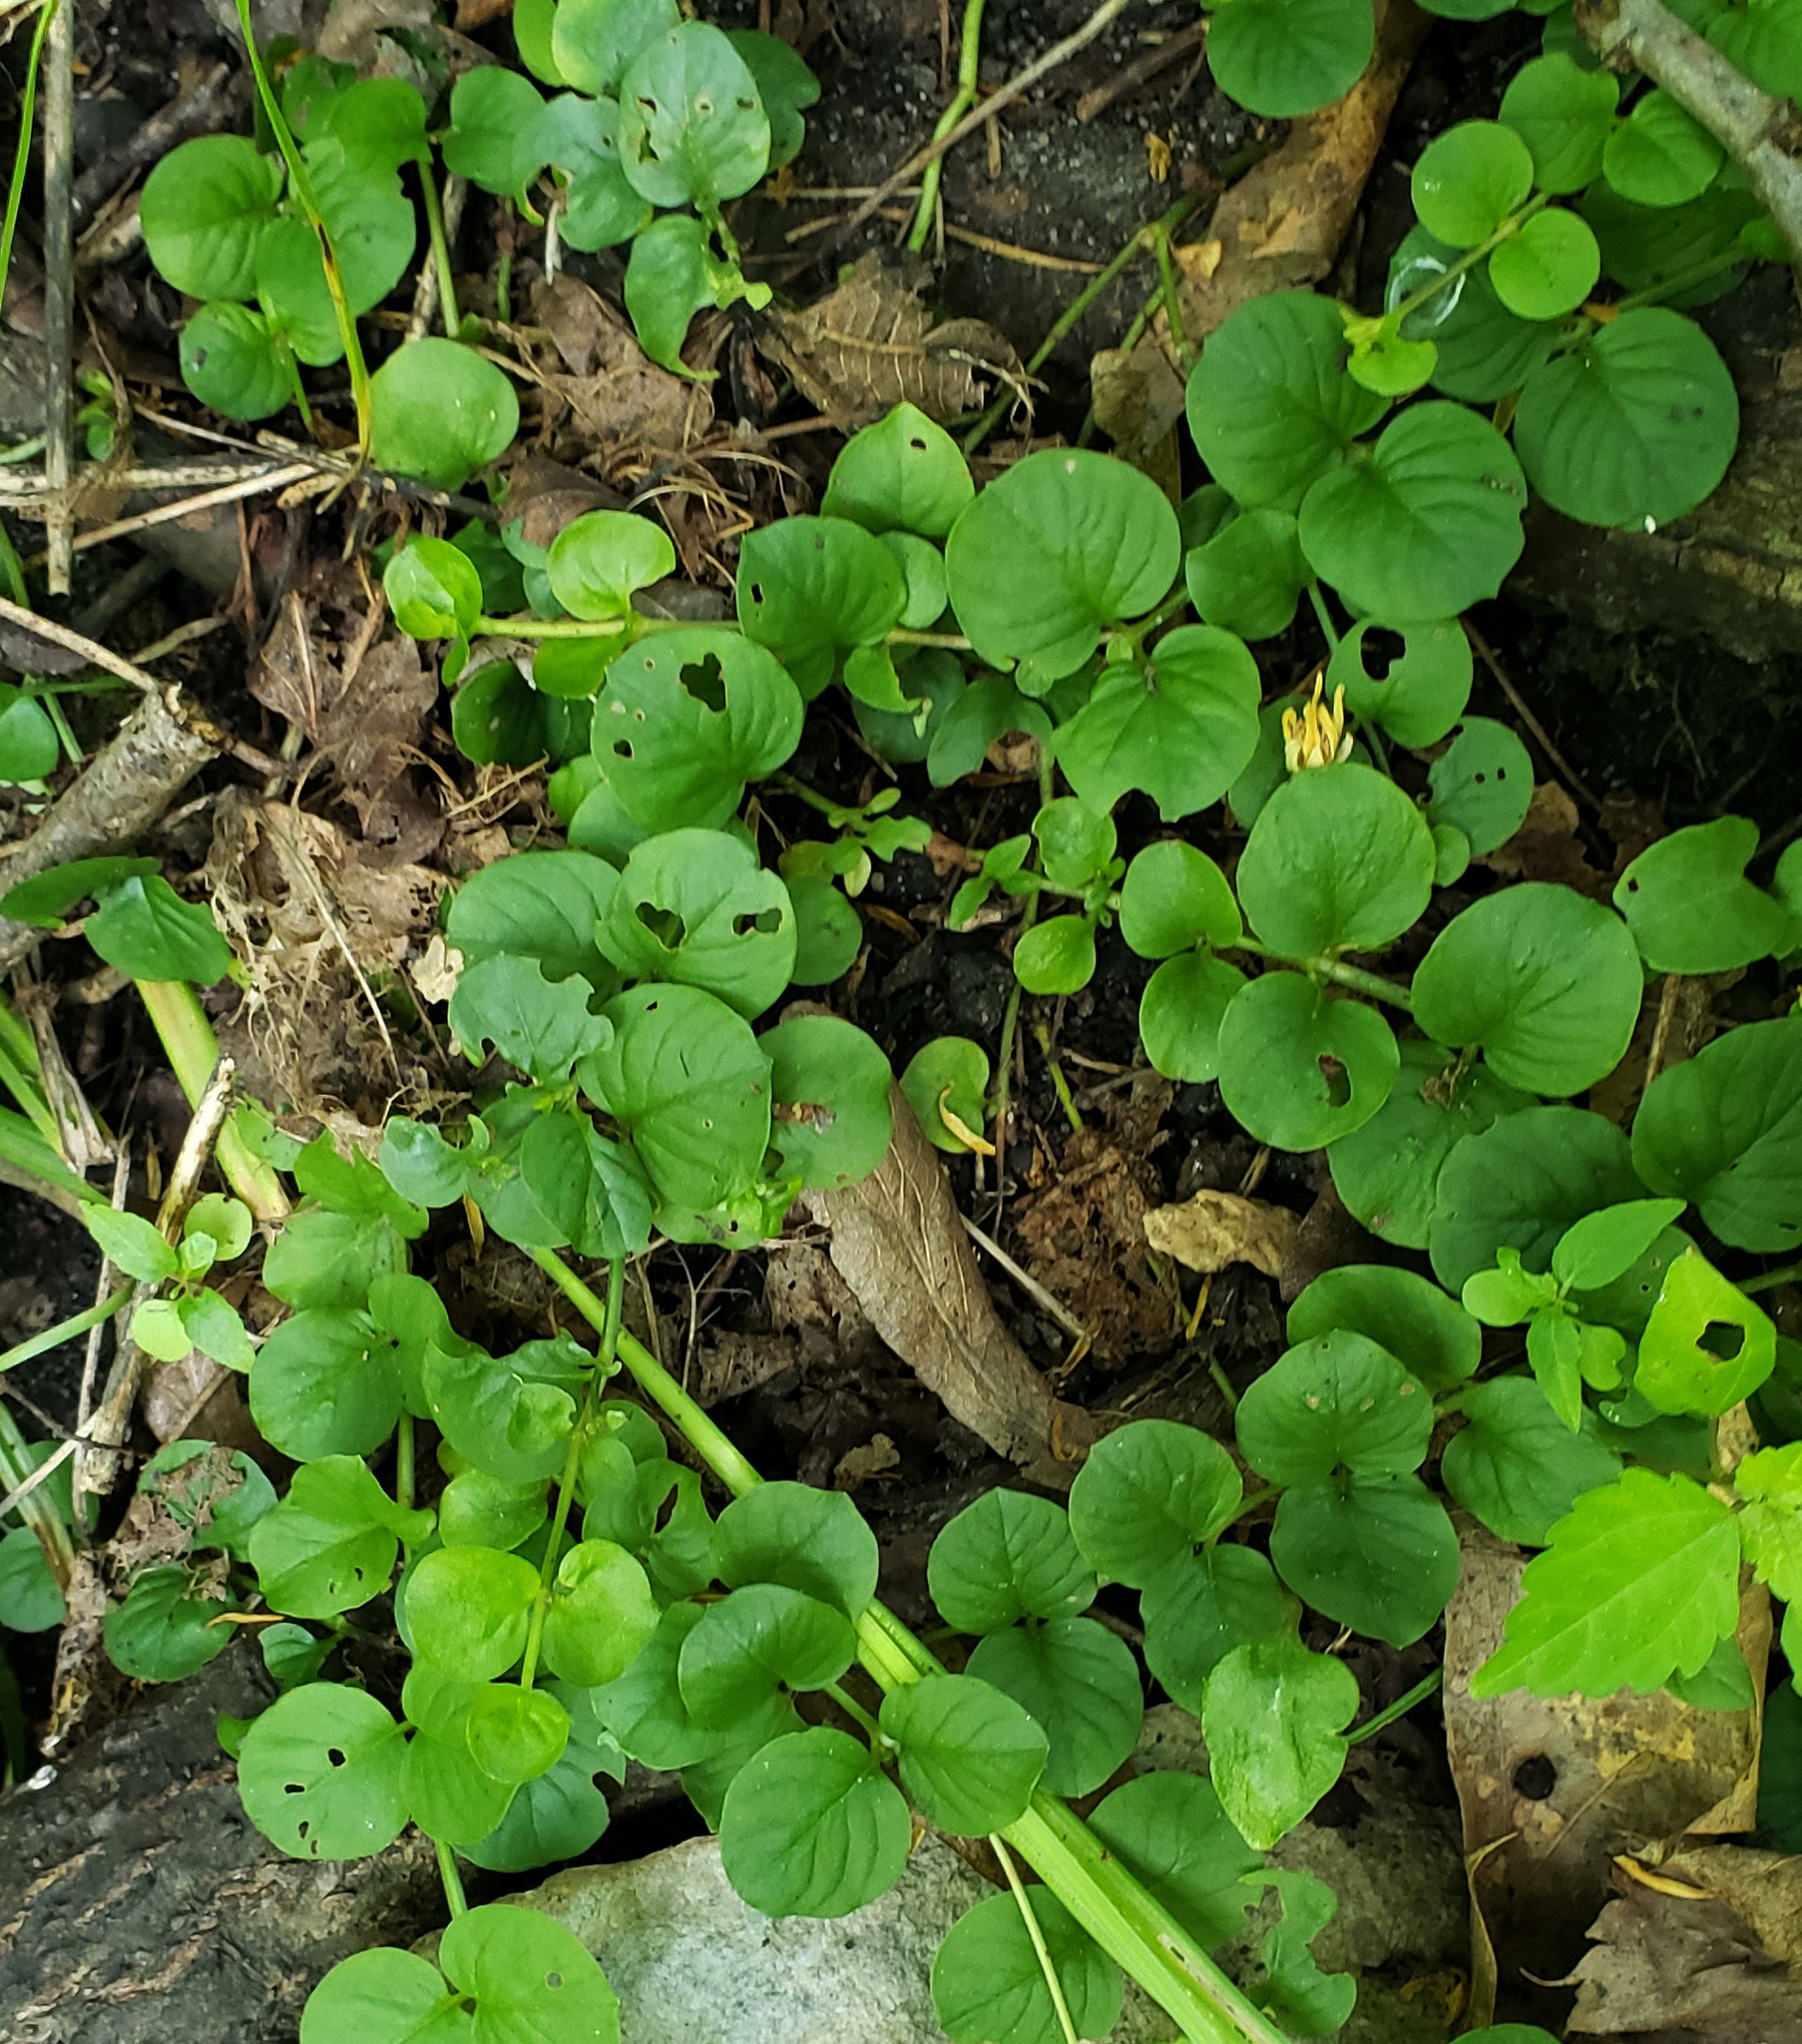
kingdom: Plantae
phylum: Tracheophyta
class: Magnoliopsida
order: Ericales
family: Primulaceae
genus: Lysimachia
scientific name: Lysimachia nummularia
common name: Moneywort
